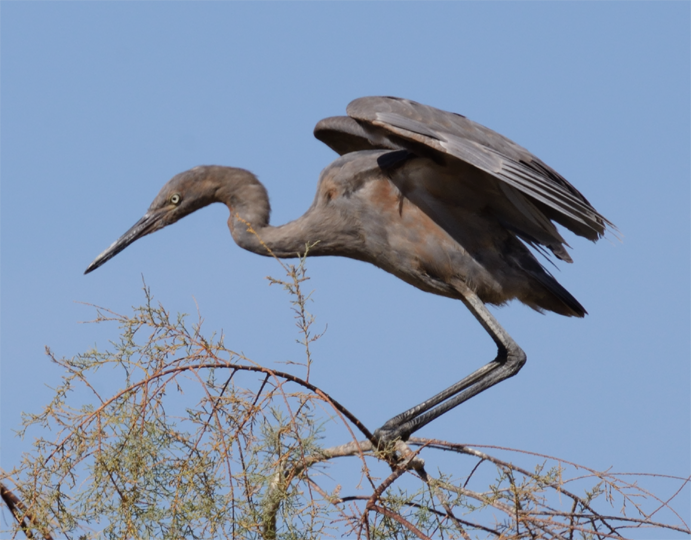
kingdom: Animalia
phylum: Chordata
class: Aves
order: Pelecaniformes
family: Ardeidae
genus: Egretta
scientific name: Egretta rufescens
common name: Reddish egret
